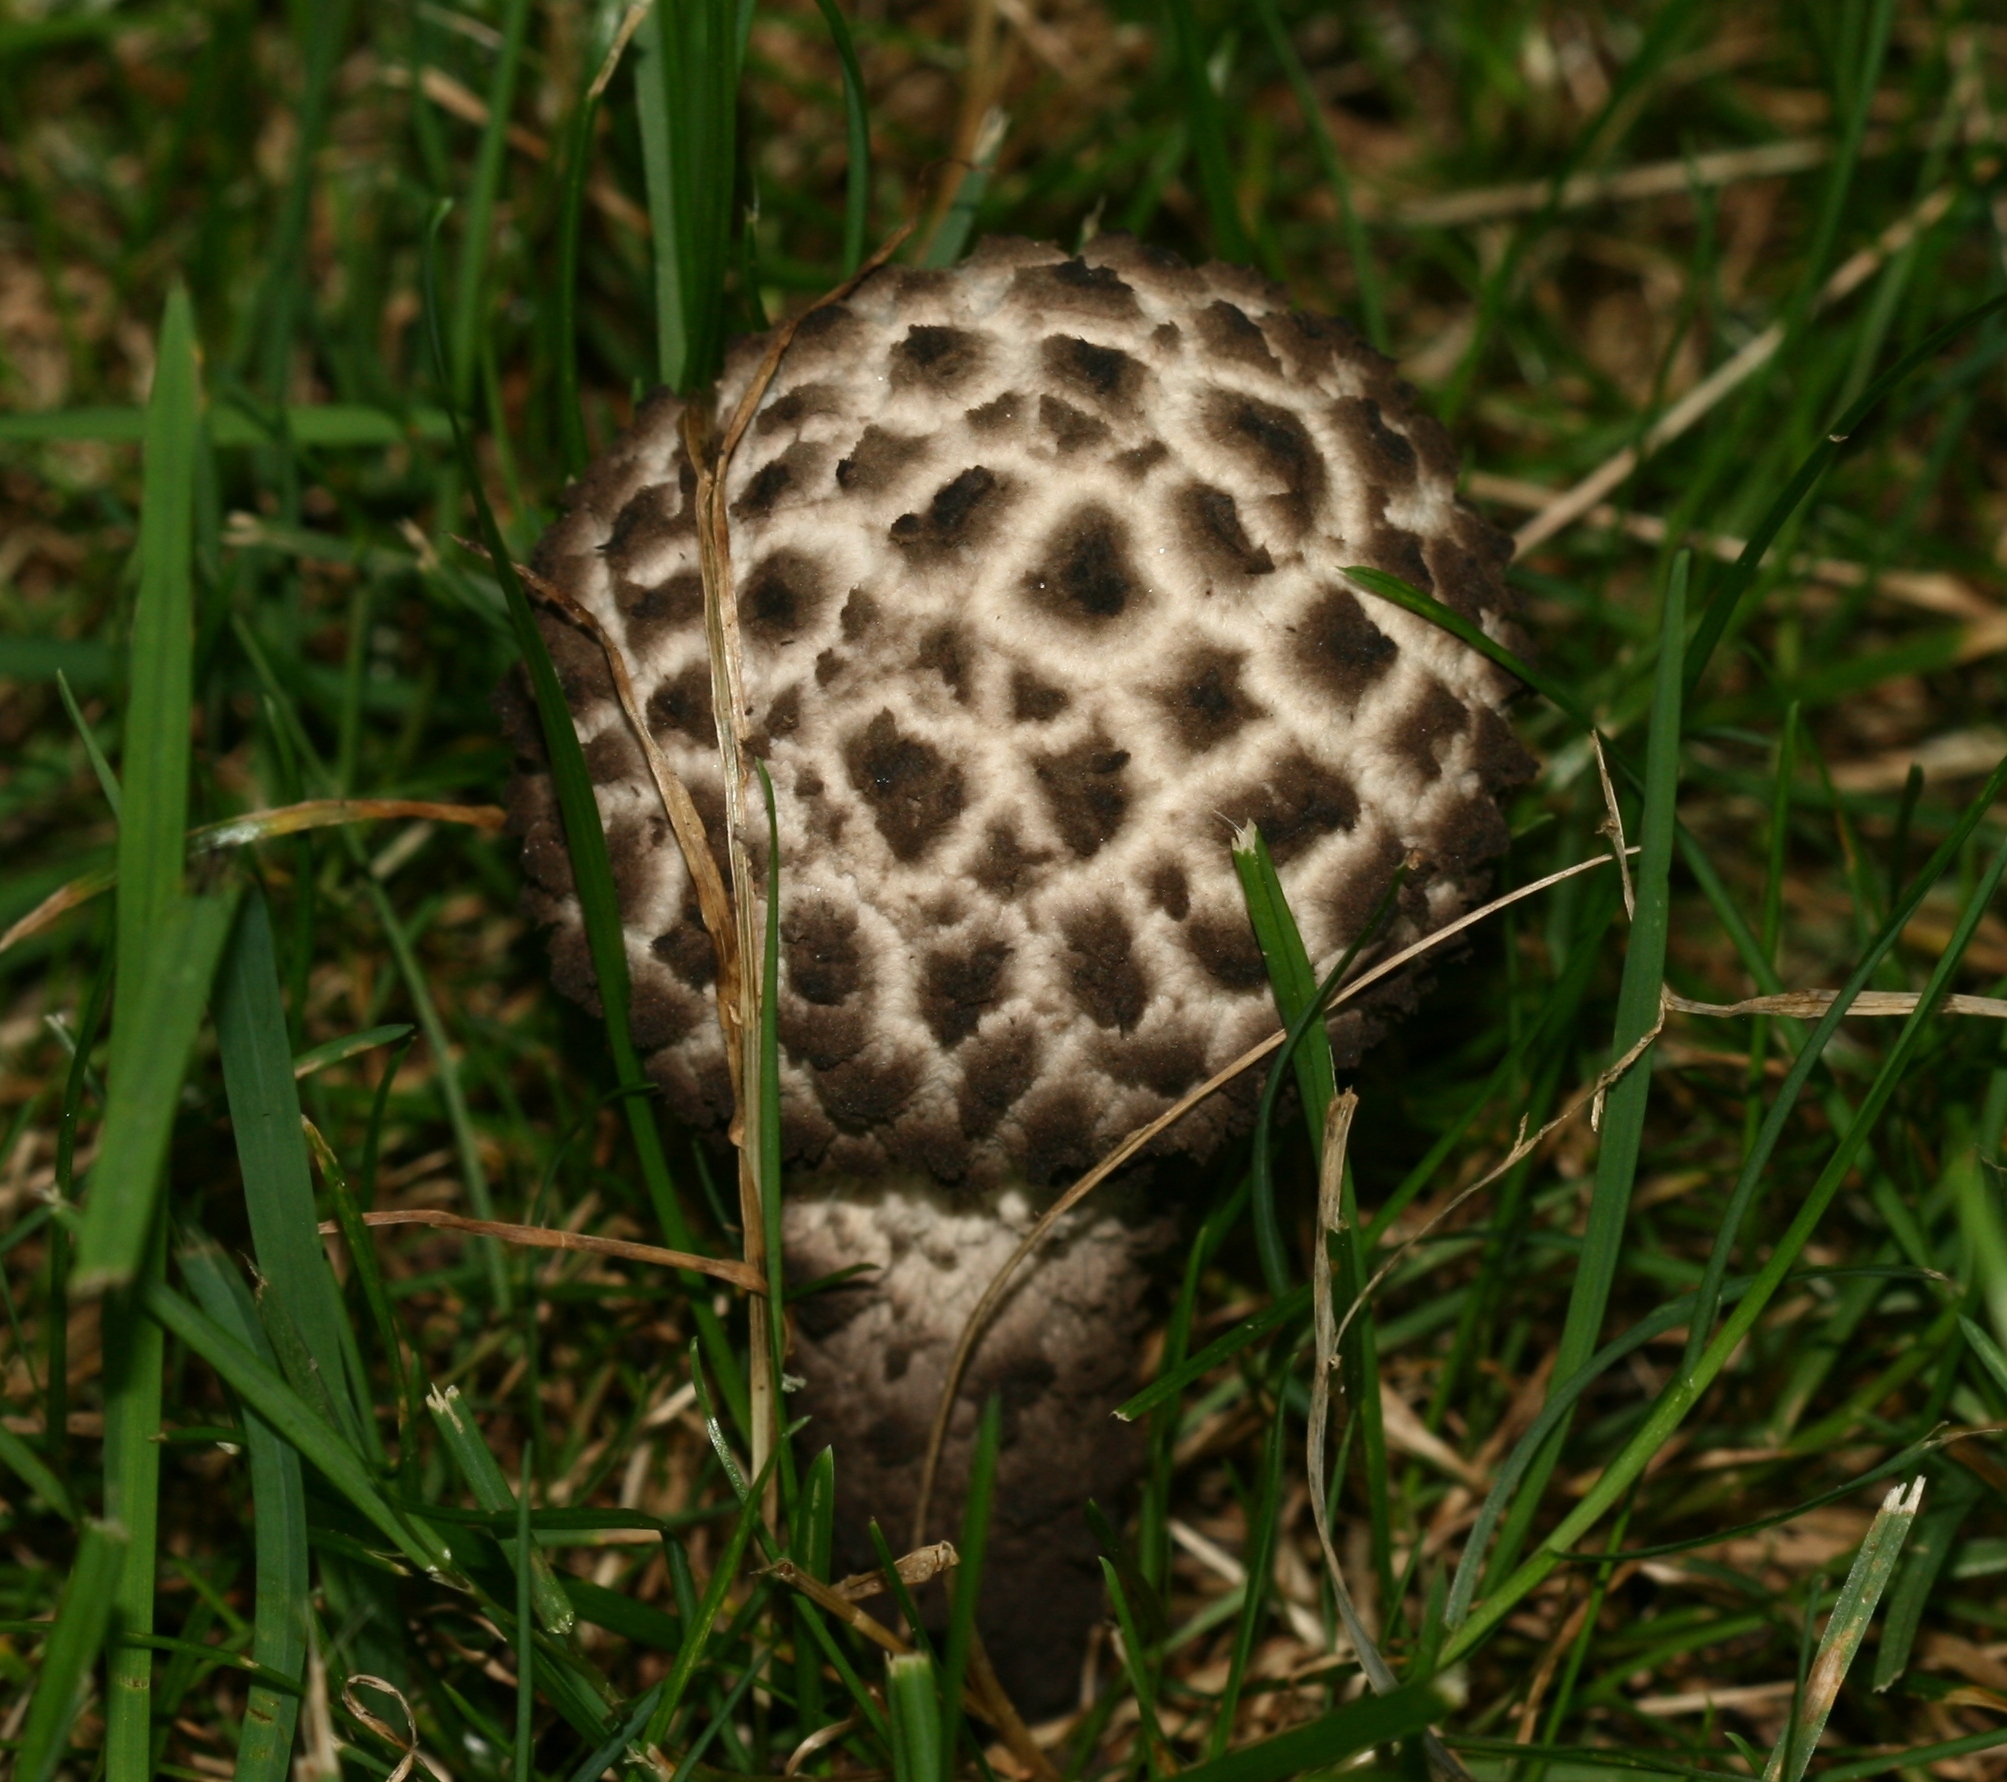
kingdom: Fungi
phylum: Basidiomycota
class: Agaricomycetes
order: Boletales
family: Boletaceae
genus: Strobilomyces
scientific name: Strobilomyces strobilaceus
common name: Old man of the woods
